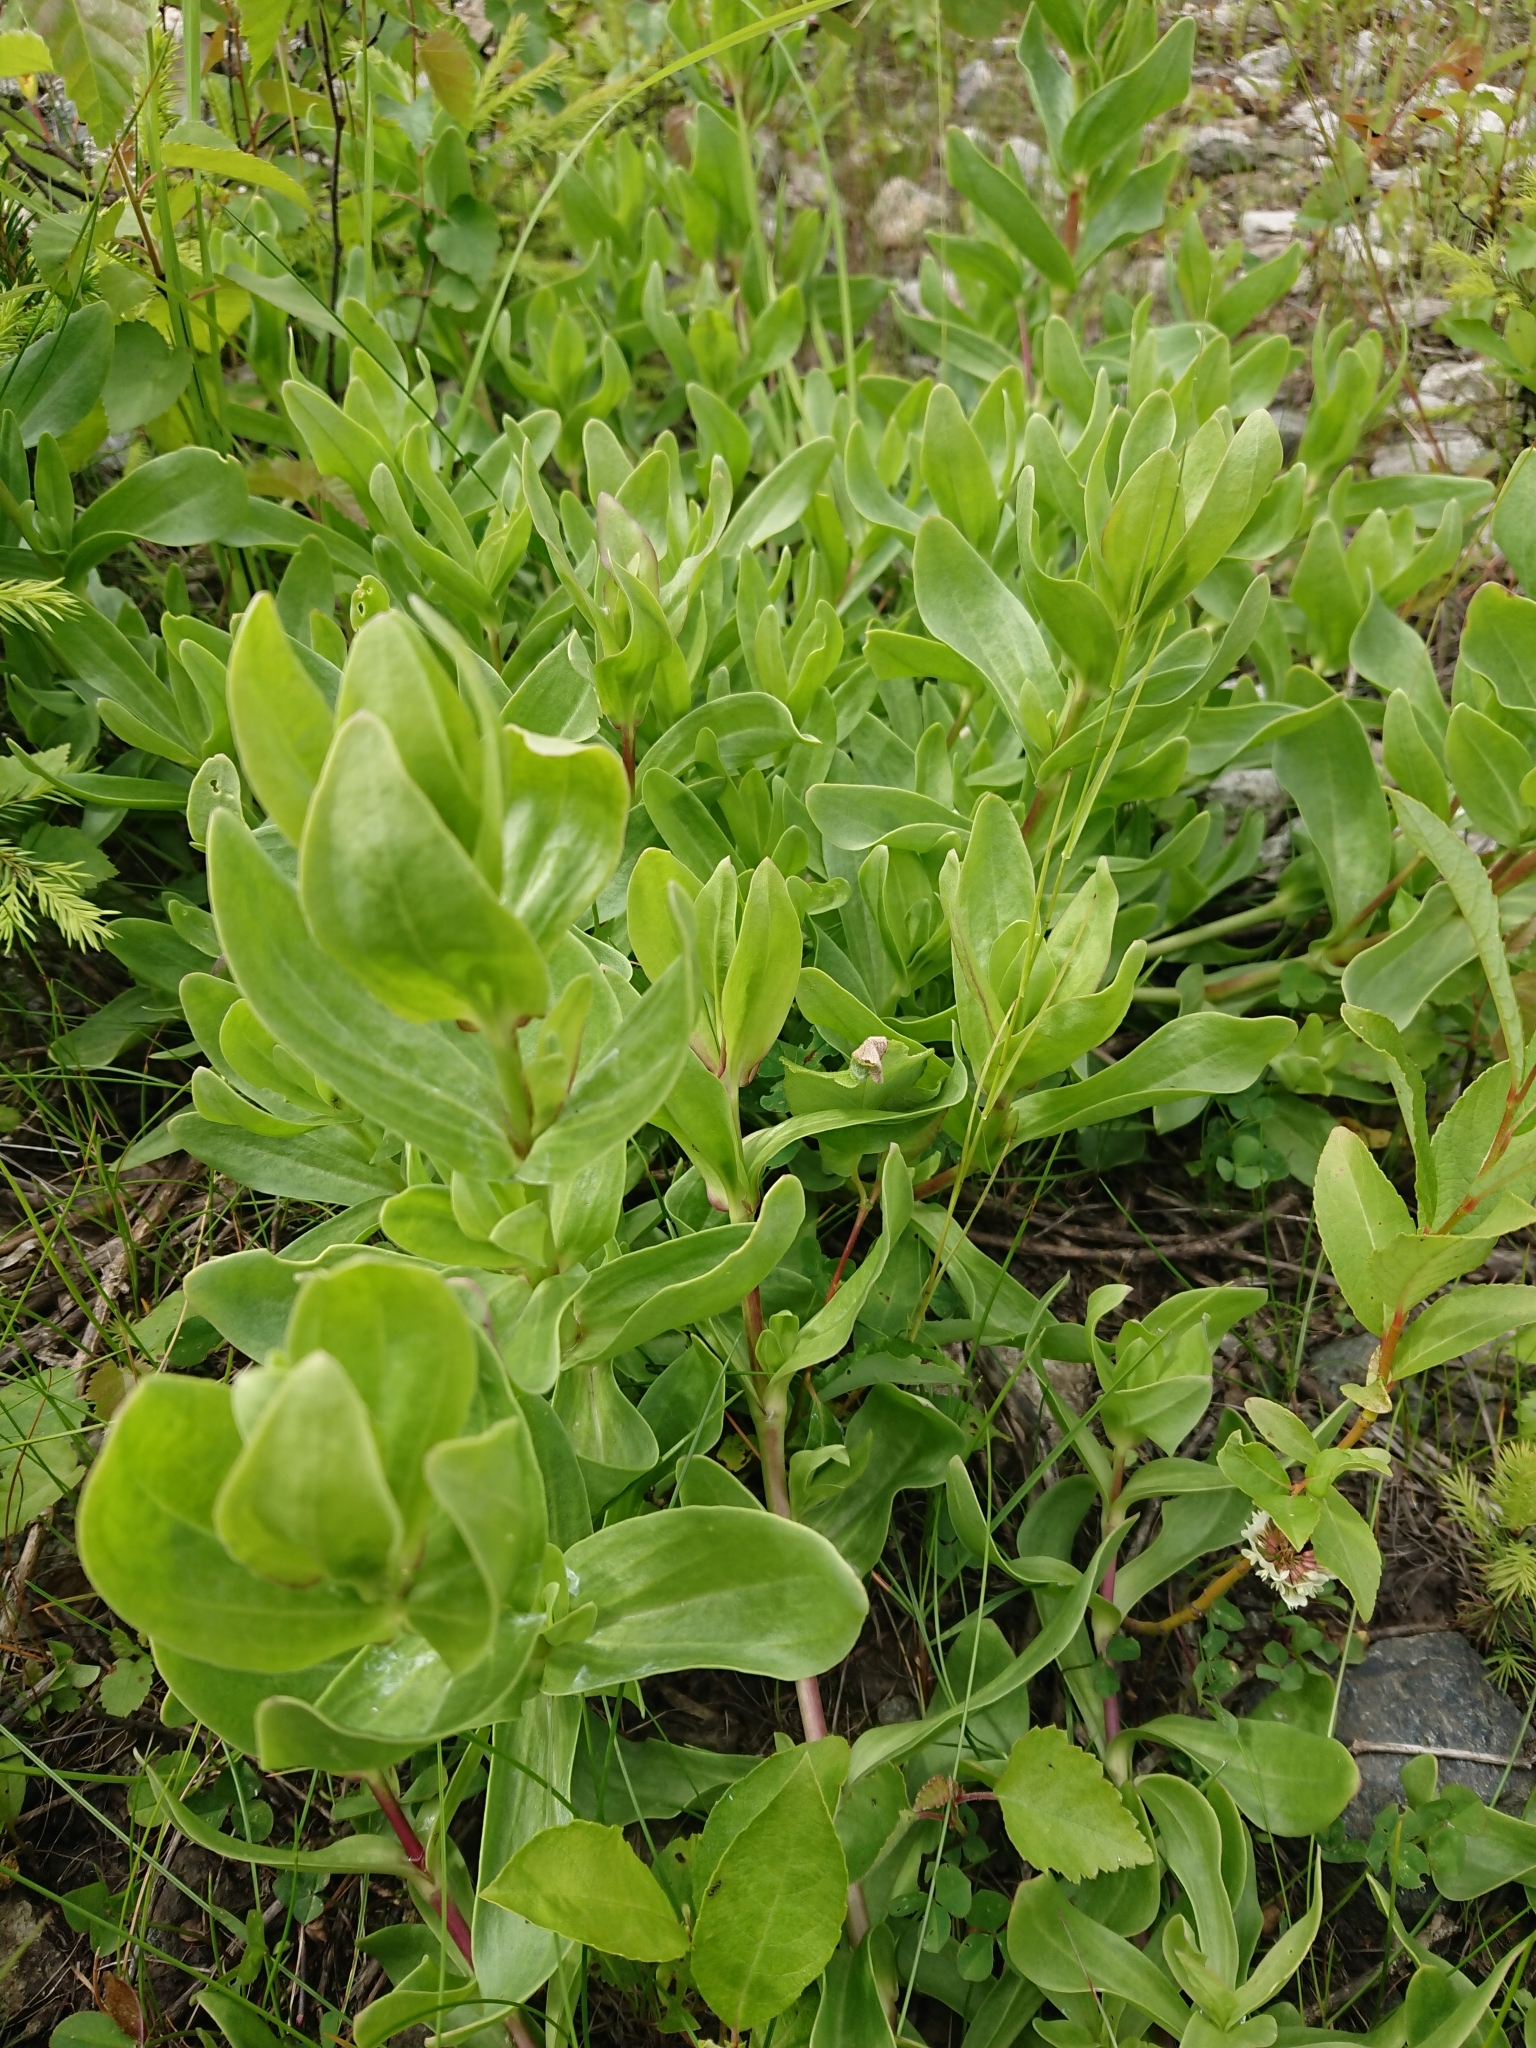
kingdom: Plantae
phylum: Tracheophyta
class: Magnoliopsida
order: Caryophyllales
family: Caryophyllaceae
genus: Gypsophila
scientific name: Gypsophila perfoliata
